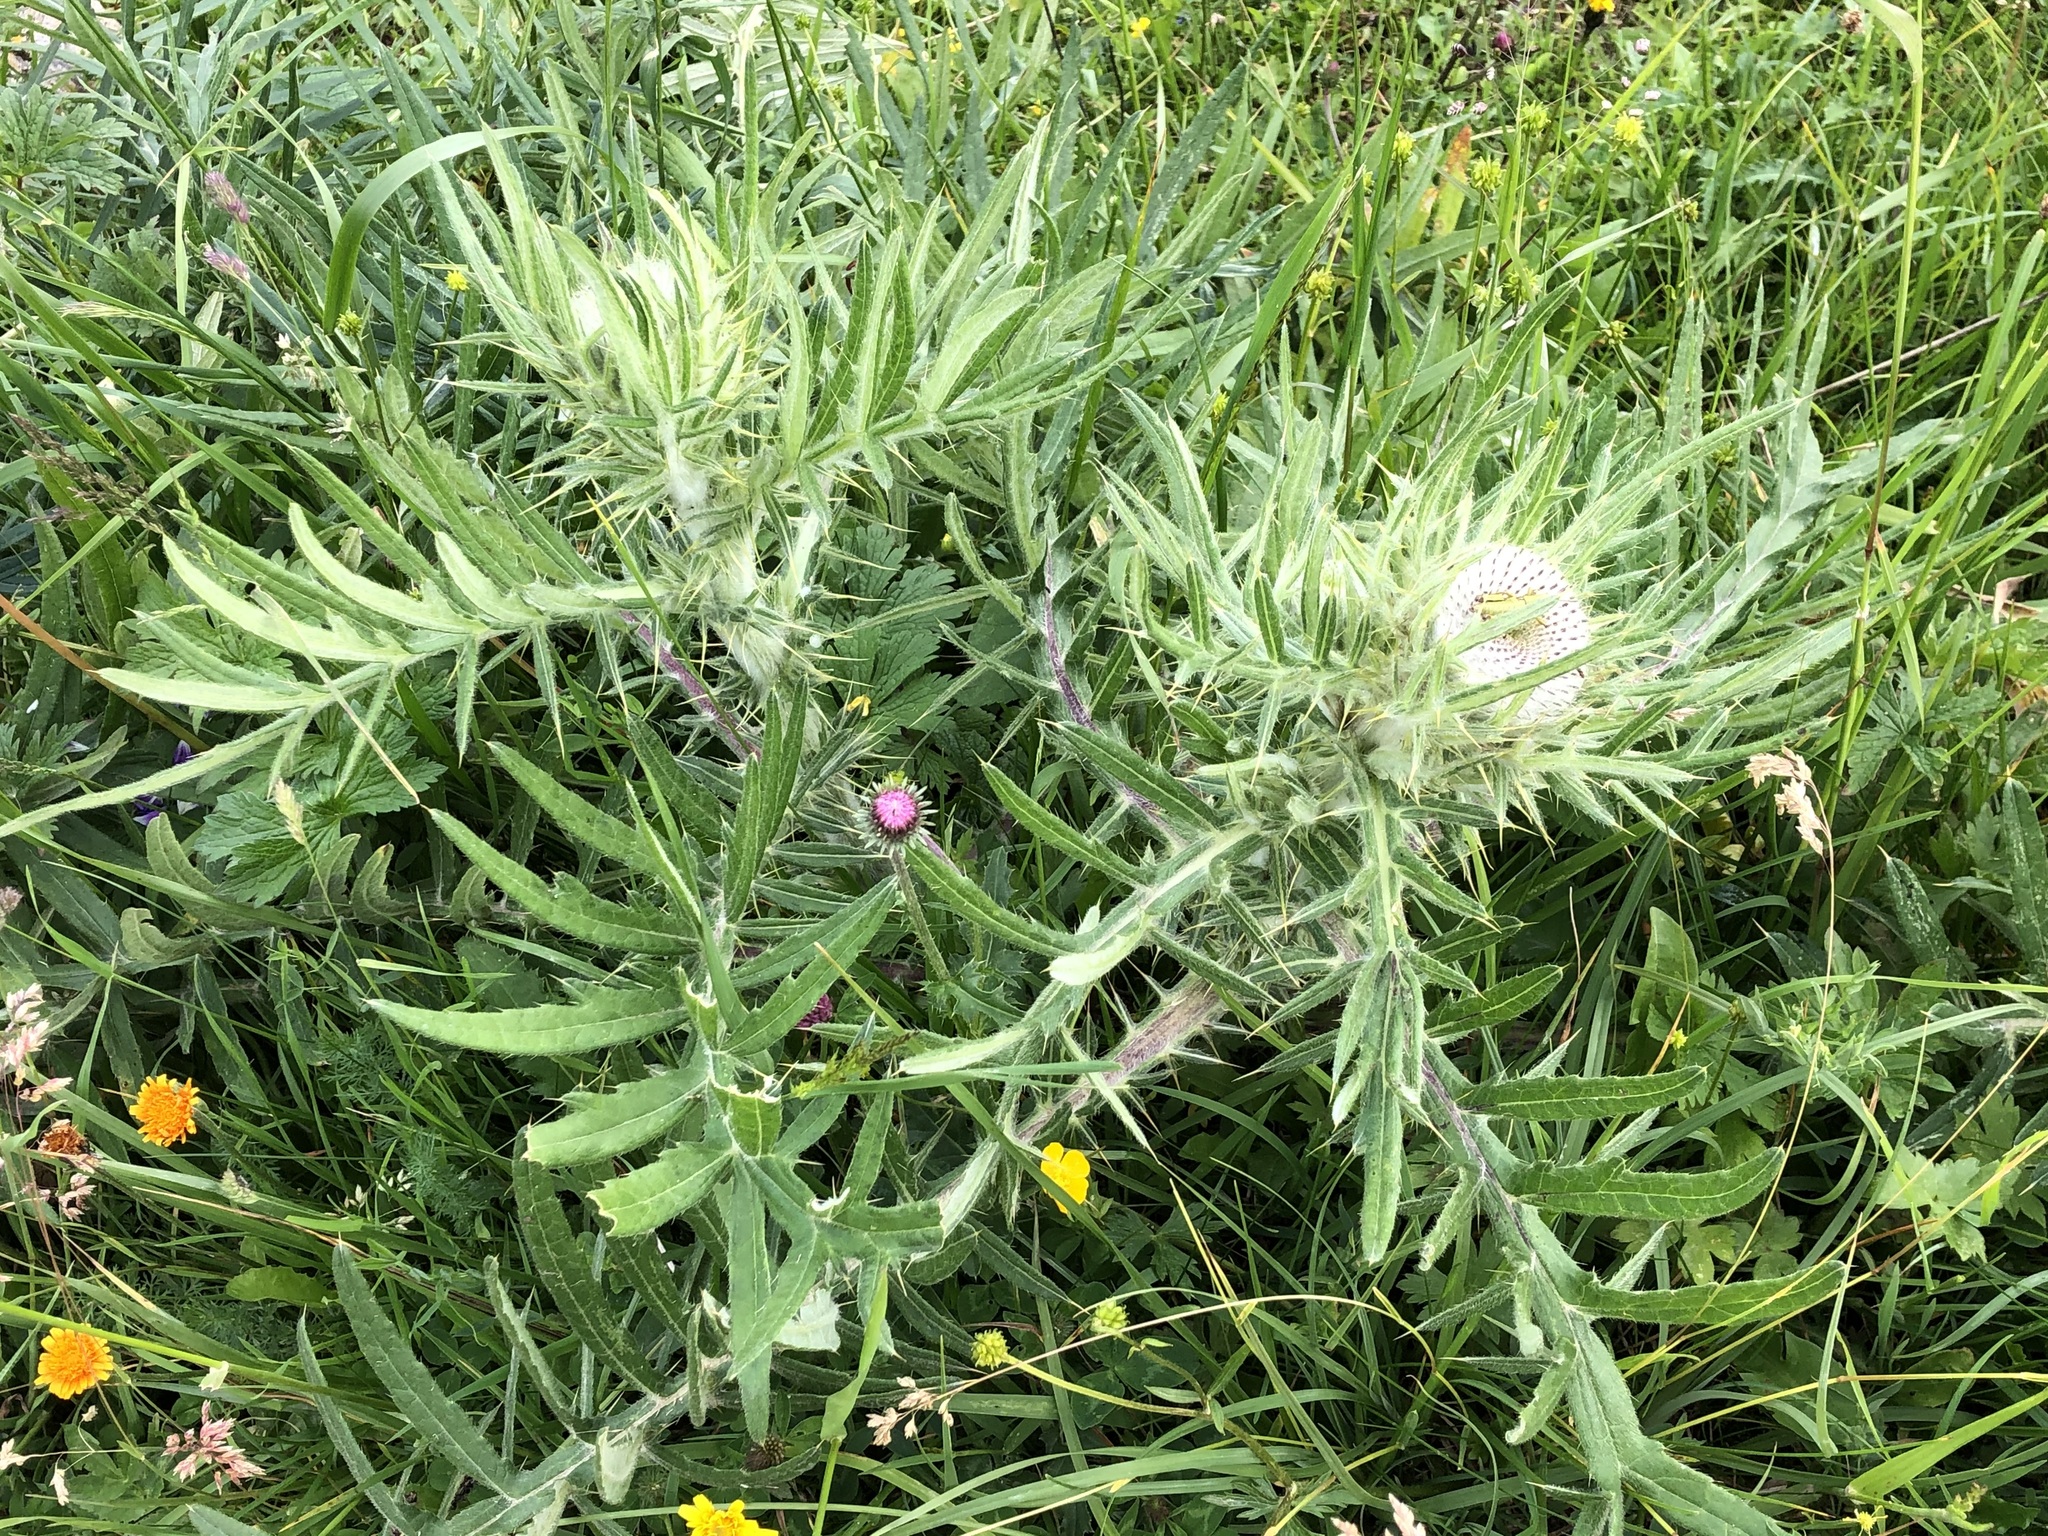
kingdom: Plantae
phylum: Tracheophyta
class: Magnoliopsida
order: Asterales
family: Asteraceae
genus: Lophiolepis
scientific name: Lophiolepis eriophora
